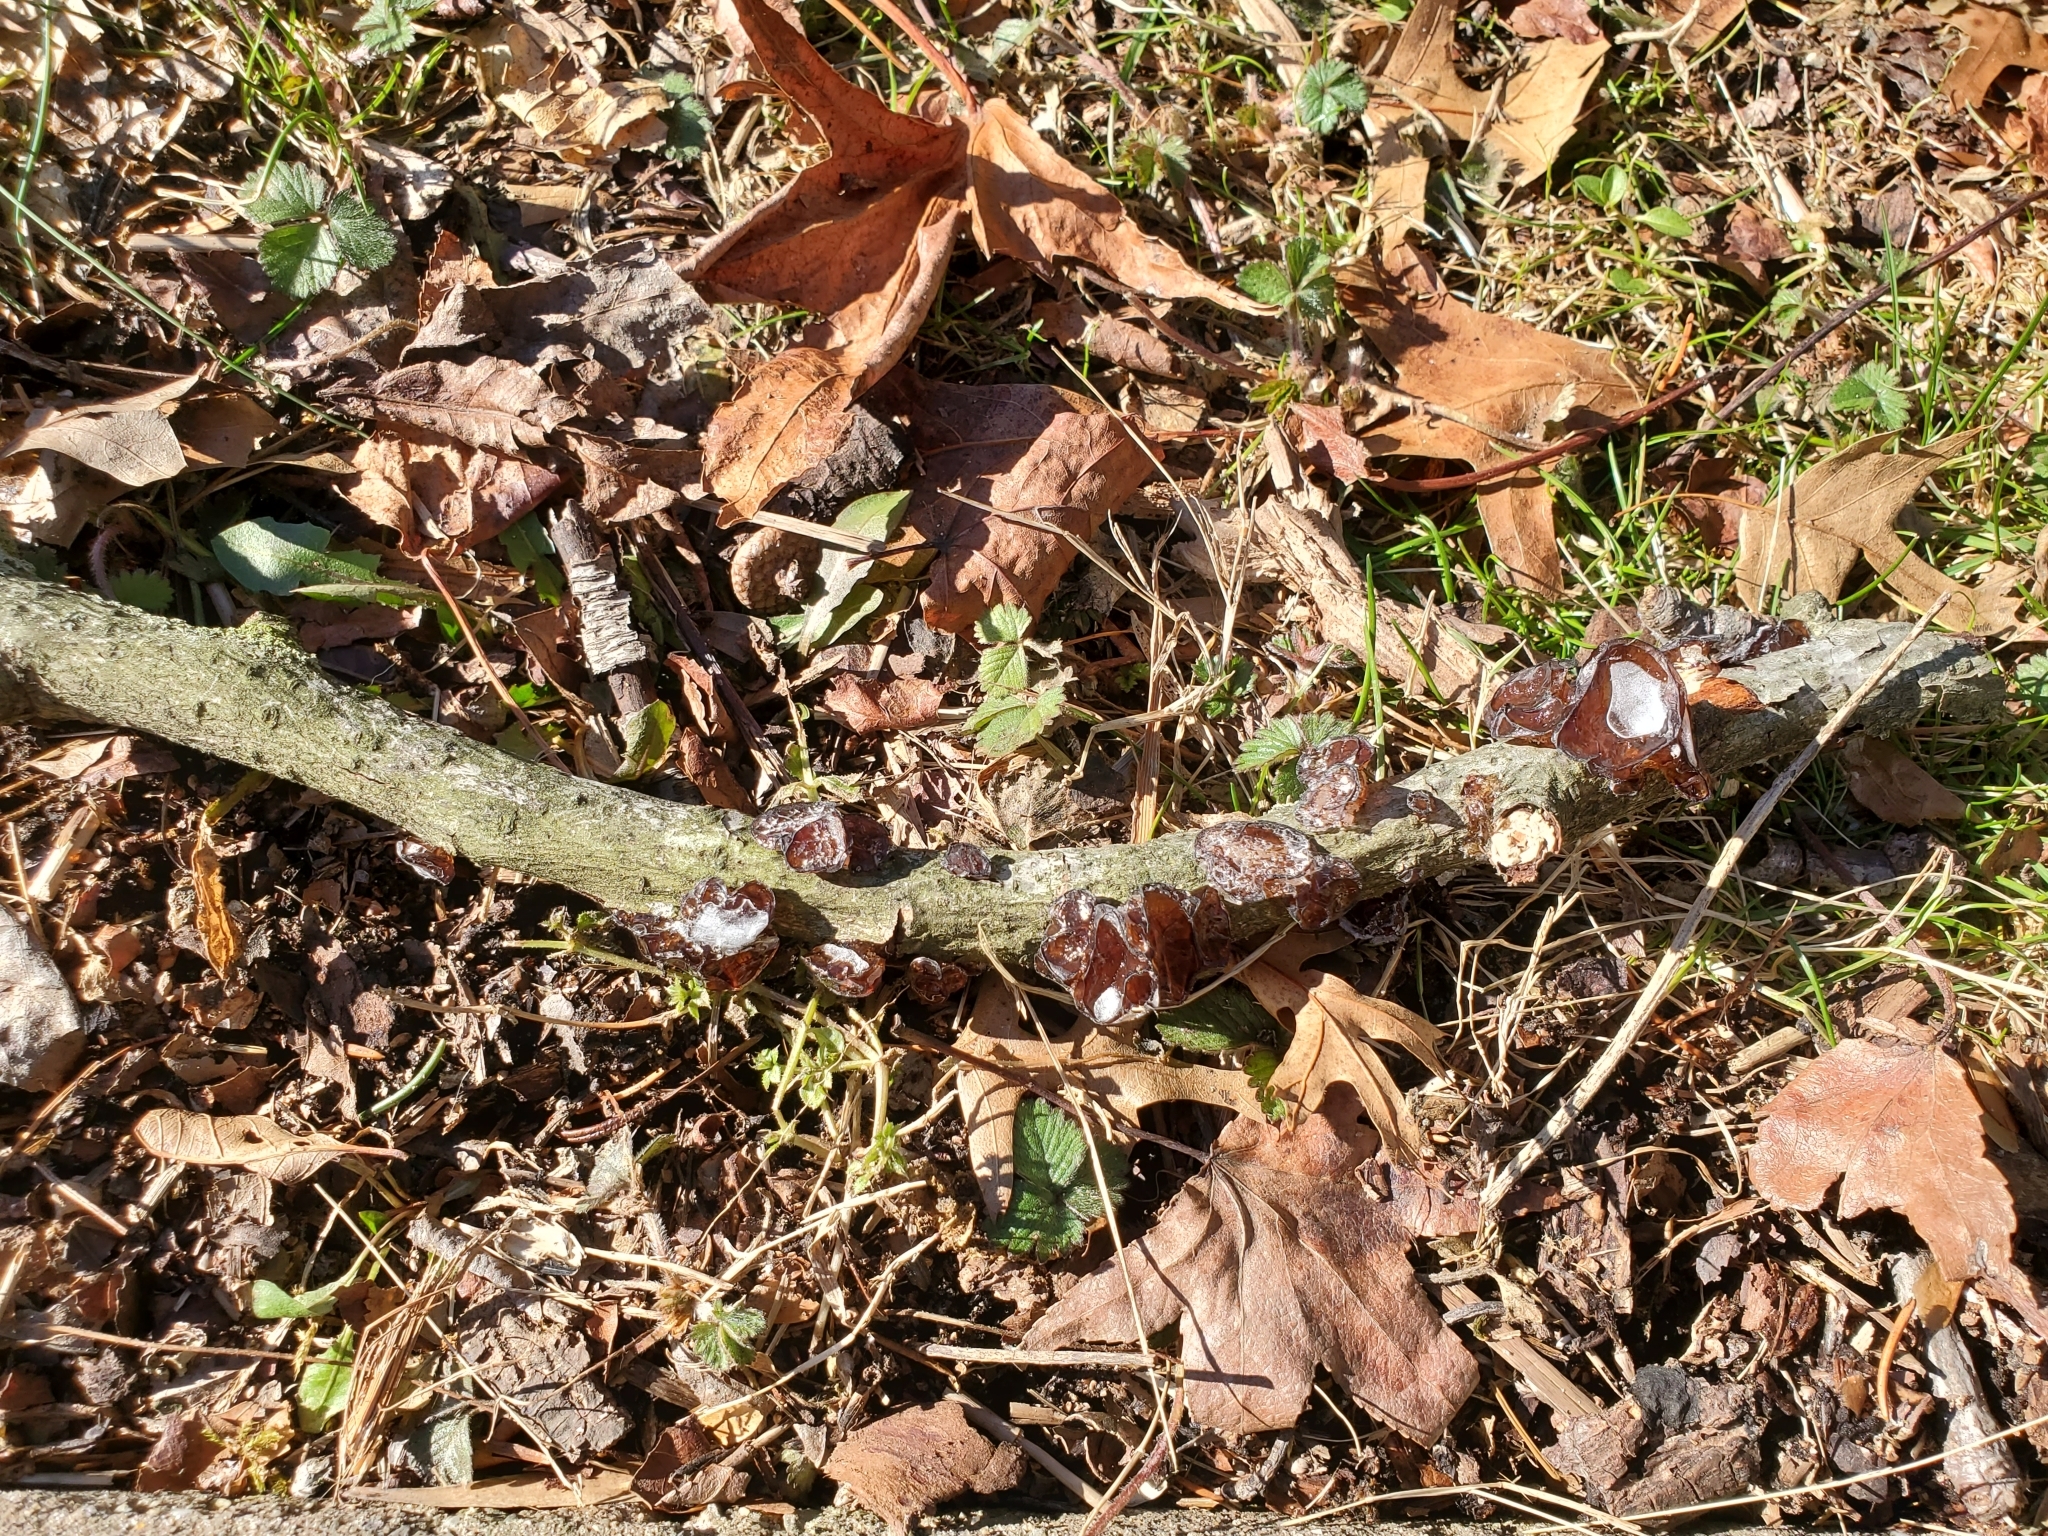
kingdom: Fungi
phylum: Basidiomycota
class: Agaricomycetes
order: Auriculariales
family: Auriculariaceae
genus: Exidia
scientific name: Exidia
